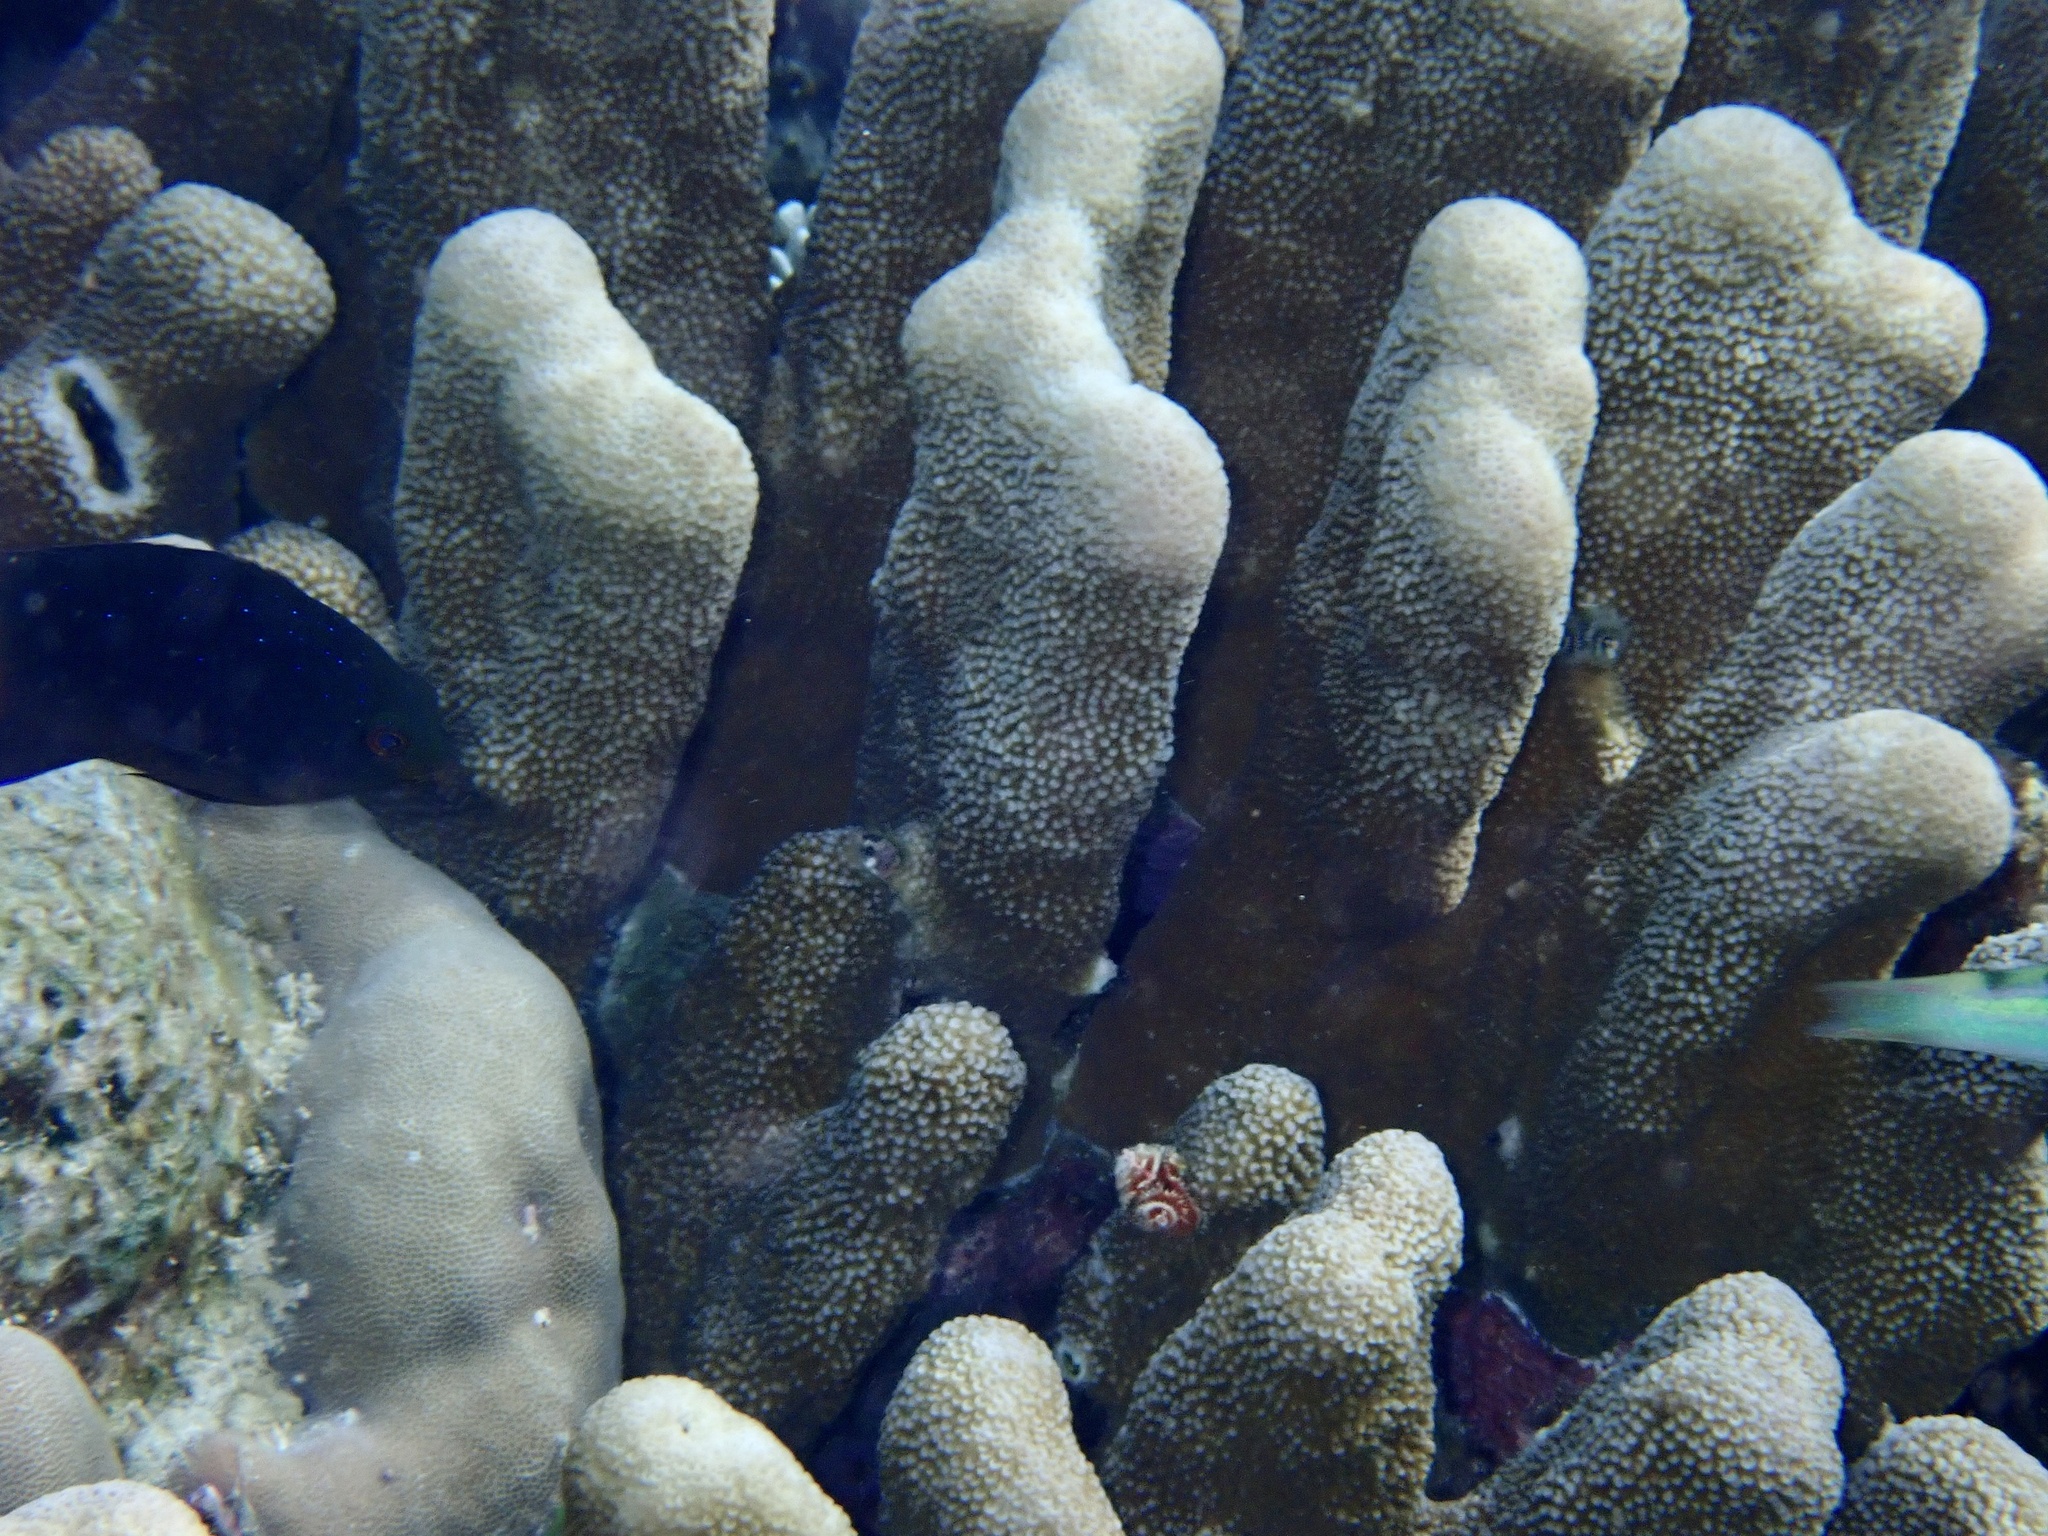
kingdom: Animalia
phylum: Cnidaria
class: Anthozoa
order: Scleractinia
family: Acroporidae
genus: Isopora
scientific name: Isopora palifera
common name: Catch bowl coral
